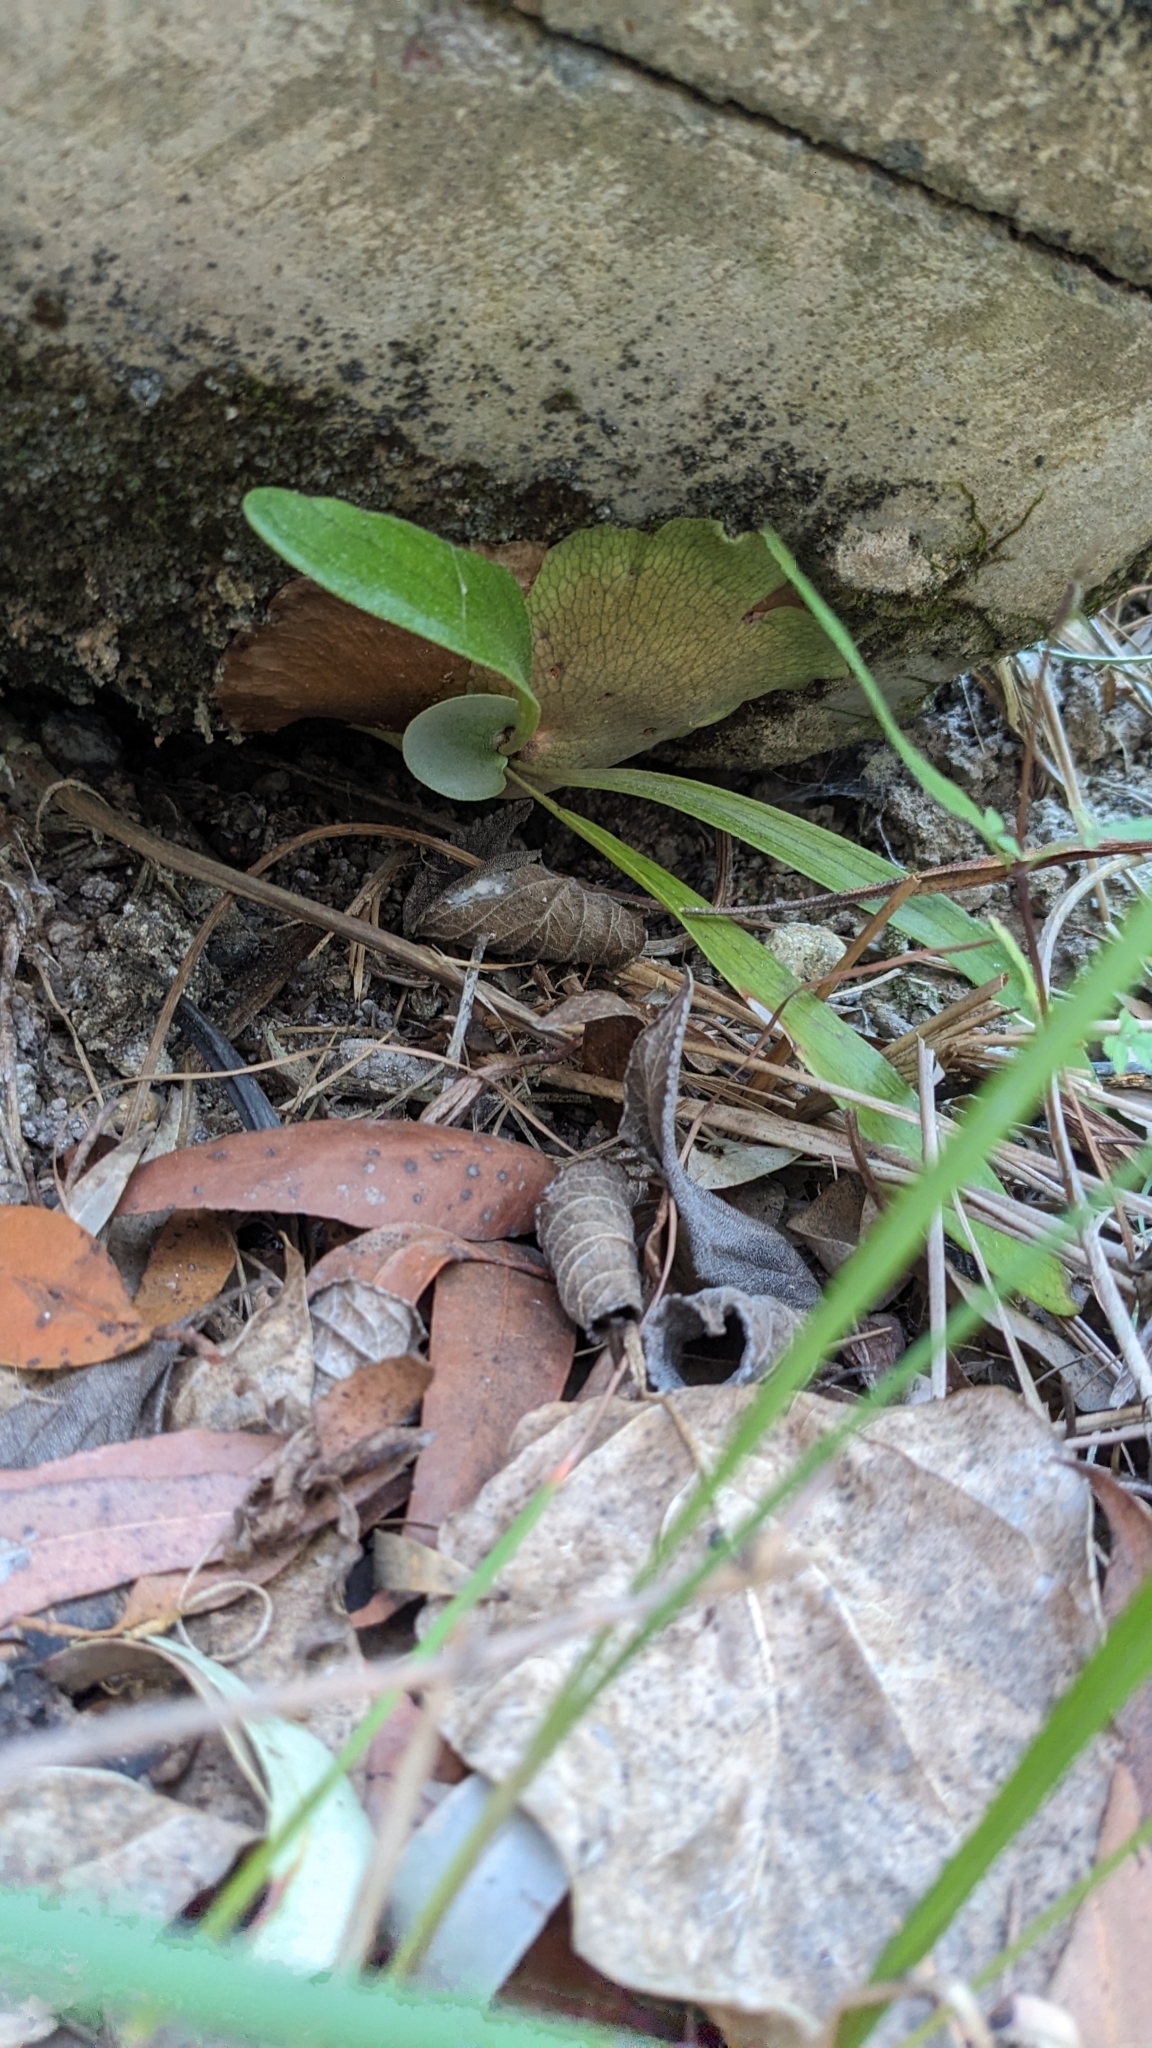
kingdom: Plantae
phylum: Tracheophyta
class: Polypodiopsida
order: Polypodiales
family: Polypodiaceae
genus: Platycerium
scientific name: Platycerium bifurcatum
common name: Elkhorn fern
